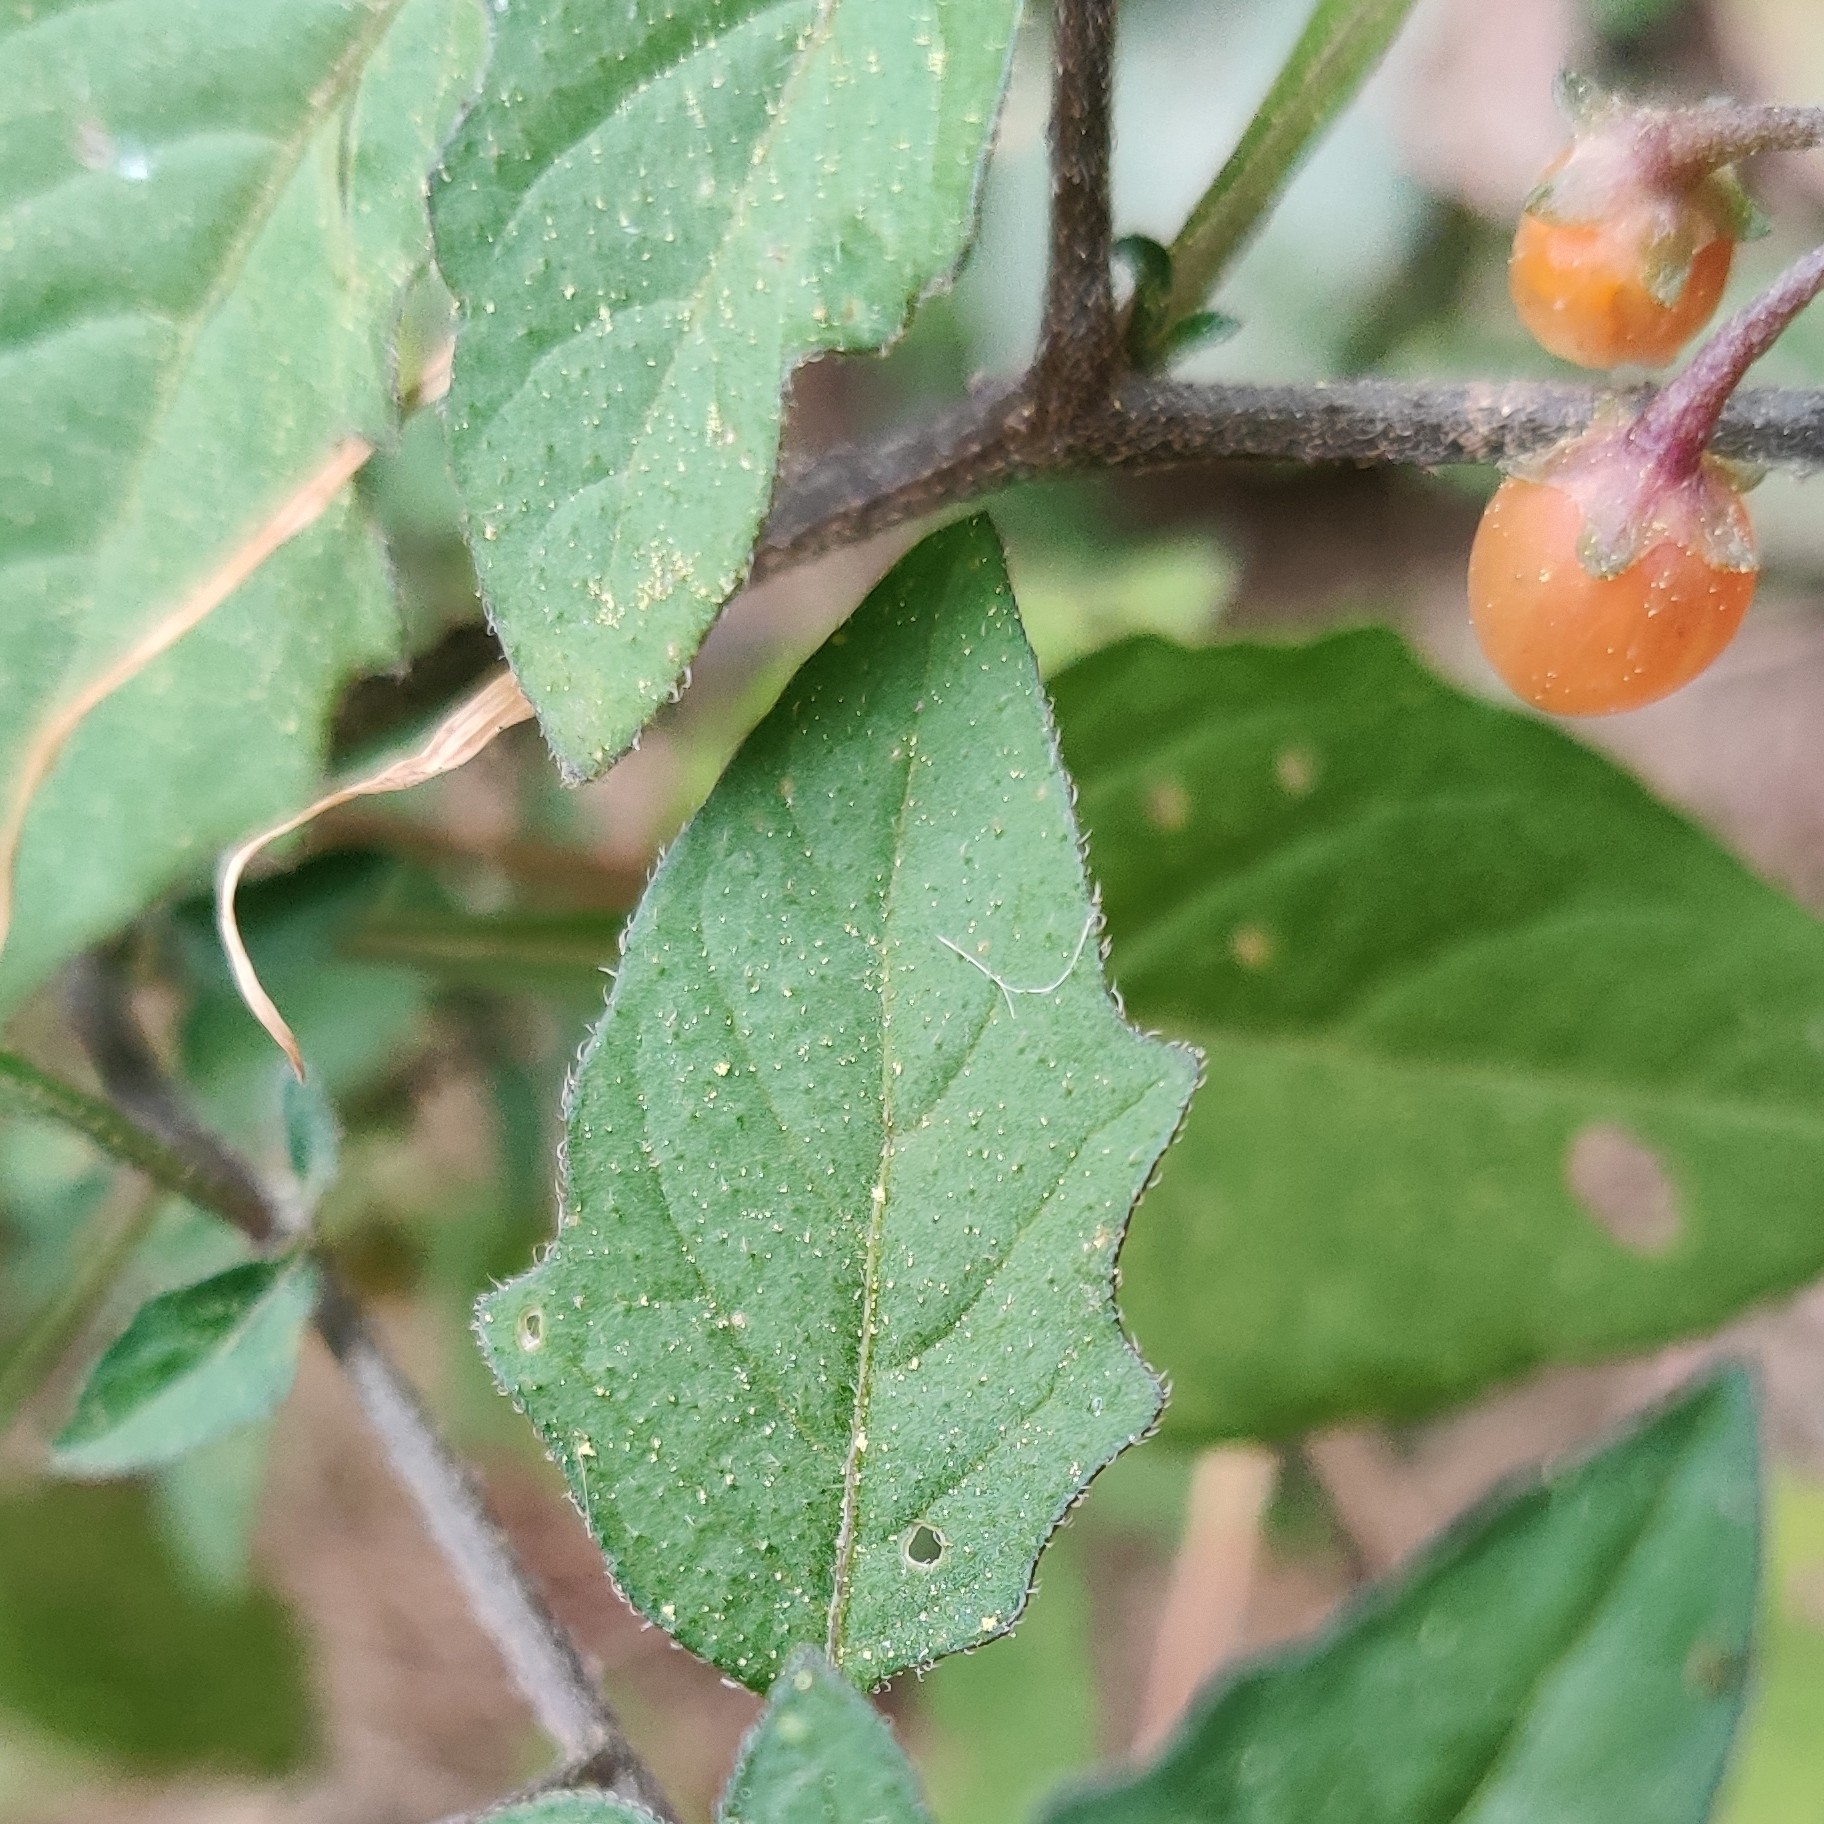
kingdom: Plantae
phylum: Tracheophyta
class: Magnoliopsida
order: Solanales
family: Solanaceae
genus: Solanum
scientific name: Solanum villosum
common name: Red nightshade
